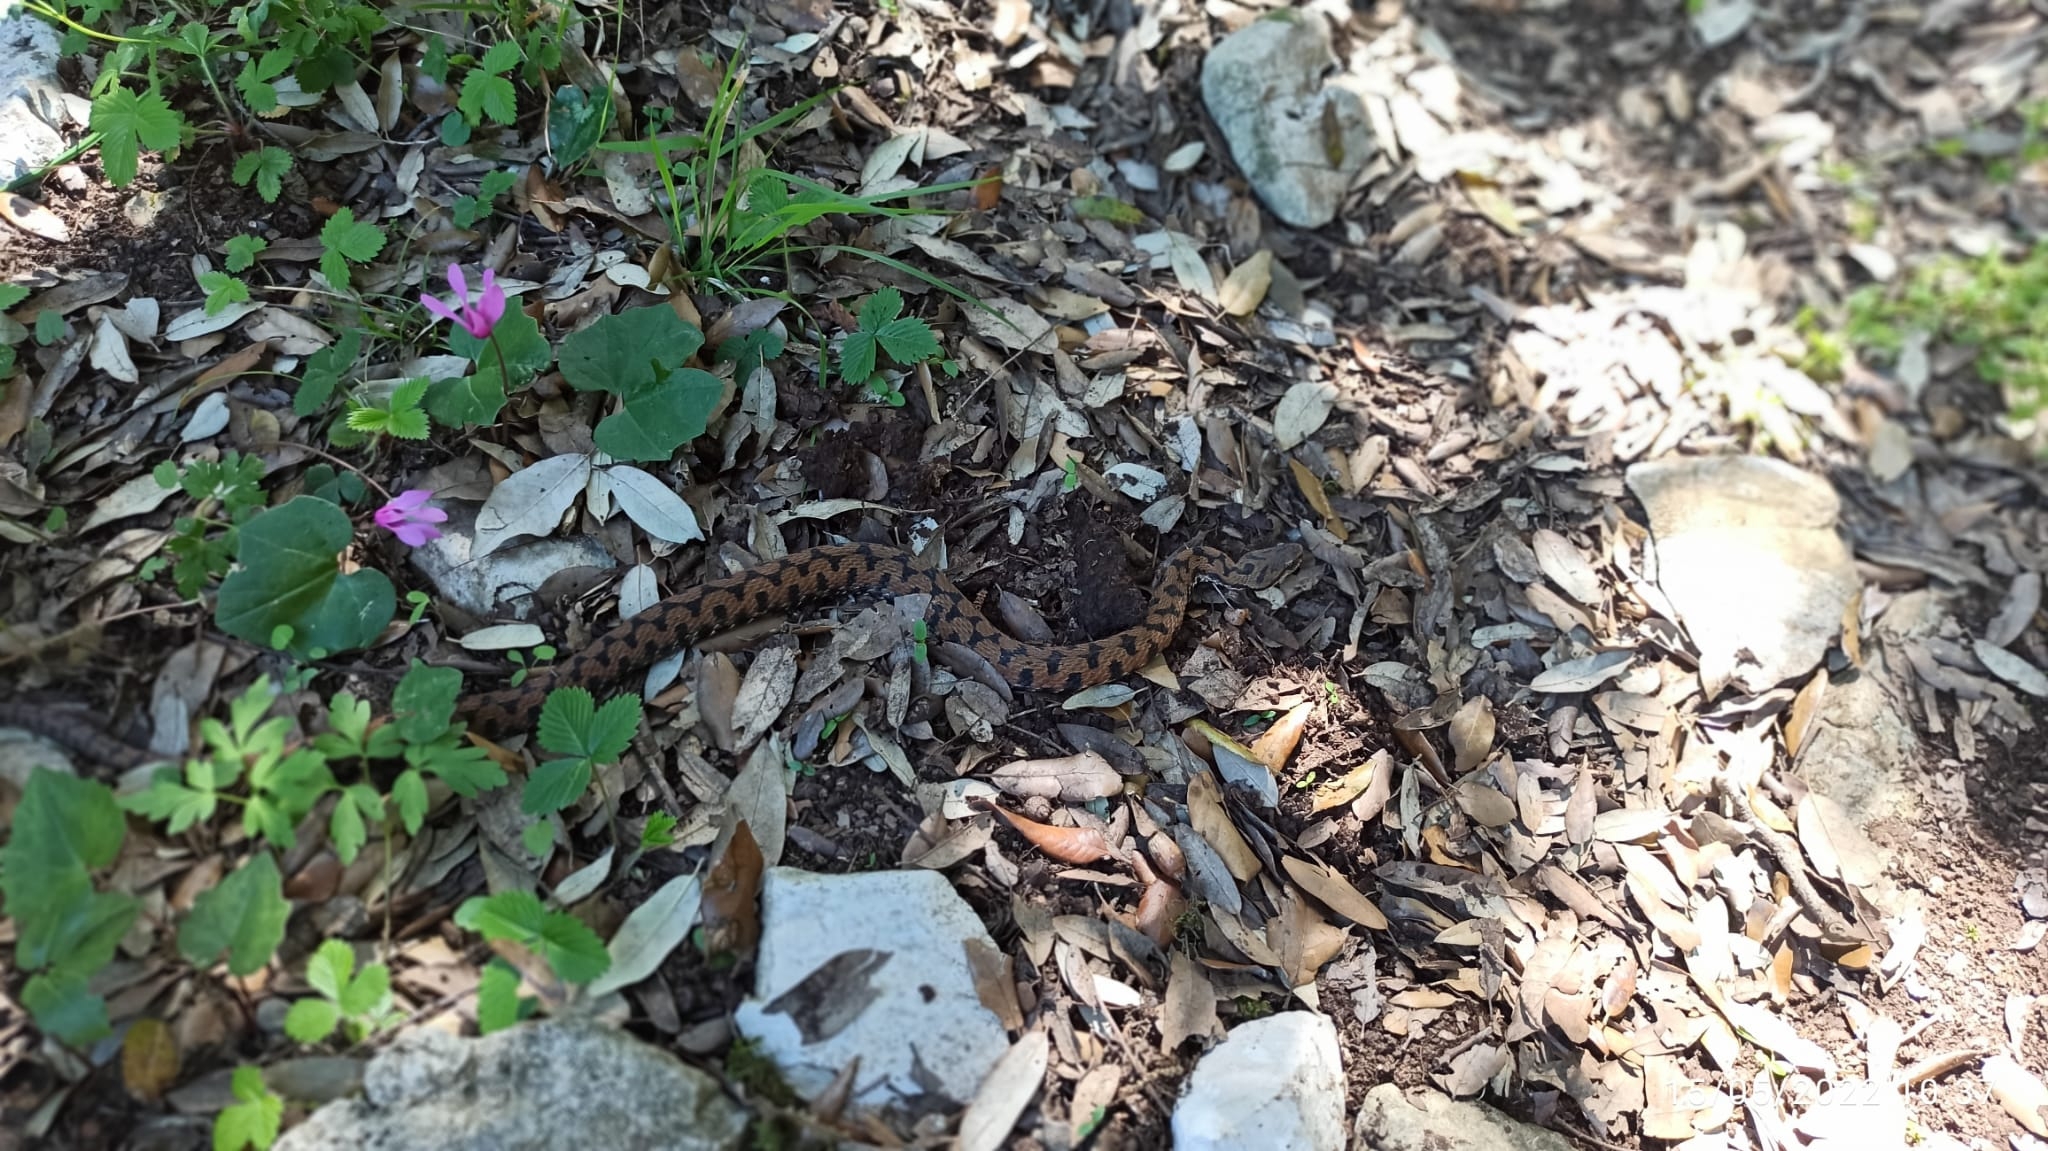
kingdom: Animalia
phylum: Chordata
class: Squamata
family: Viperidae
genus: Vipera
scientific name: Vipera aspis
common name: Asp viper
